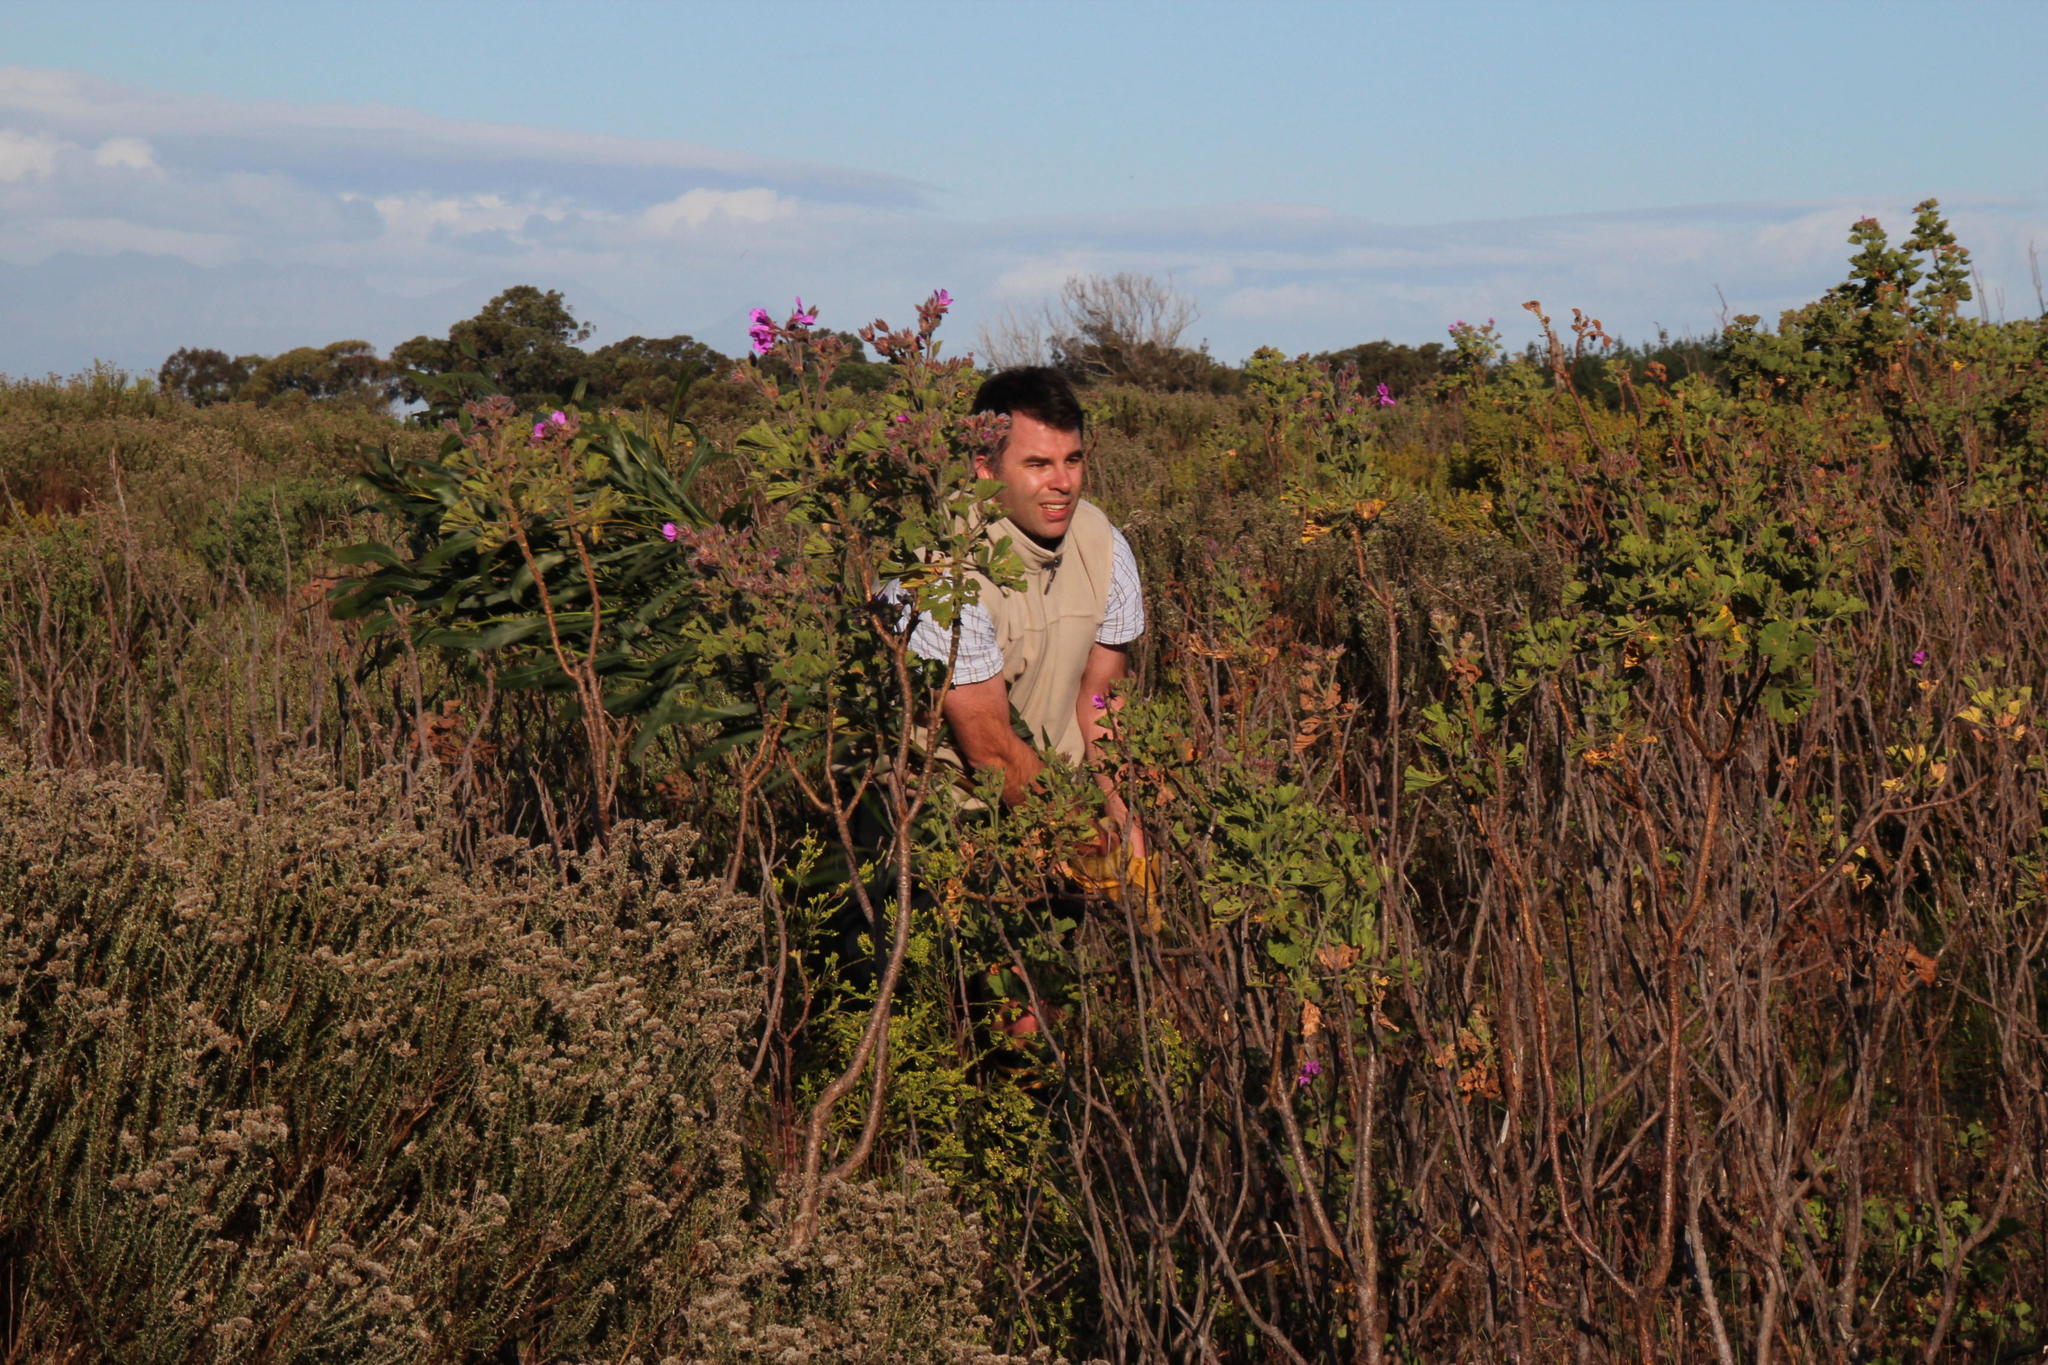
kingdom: Plantae
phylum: Tracheophyta
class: Magnoliopsida
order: Fabales
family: Fabaceae
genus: Acacia
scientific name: Acacia saligna
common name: Orange wattle
